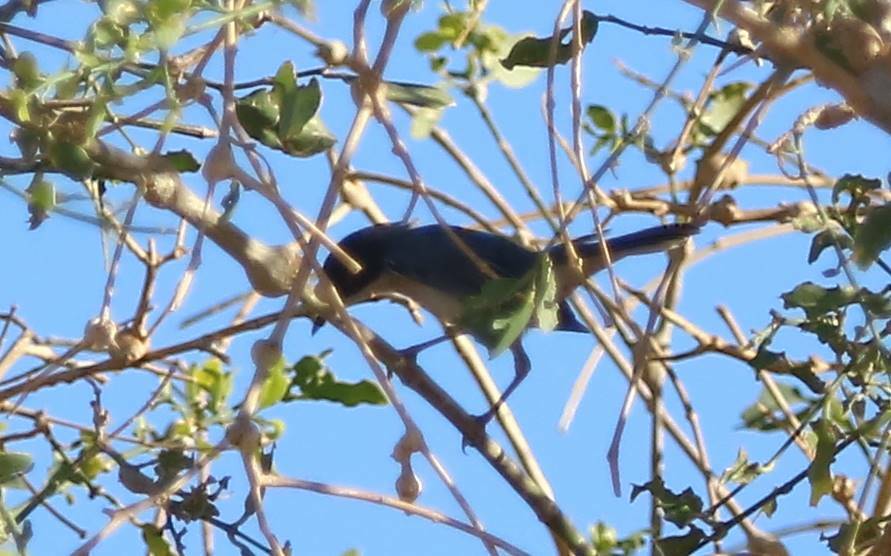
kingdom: Animalia
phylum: Chordata
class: Aves
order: Passeriformes
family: Sylviidae
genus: Curruca
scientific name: Curruca melanocephala
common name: Sardinian warbler
